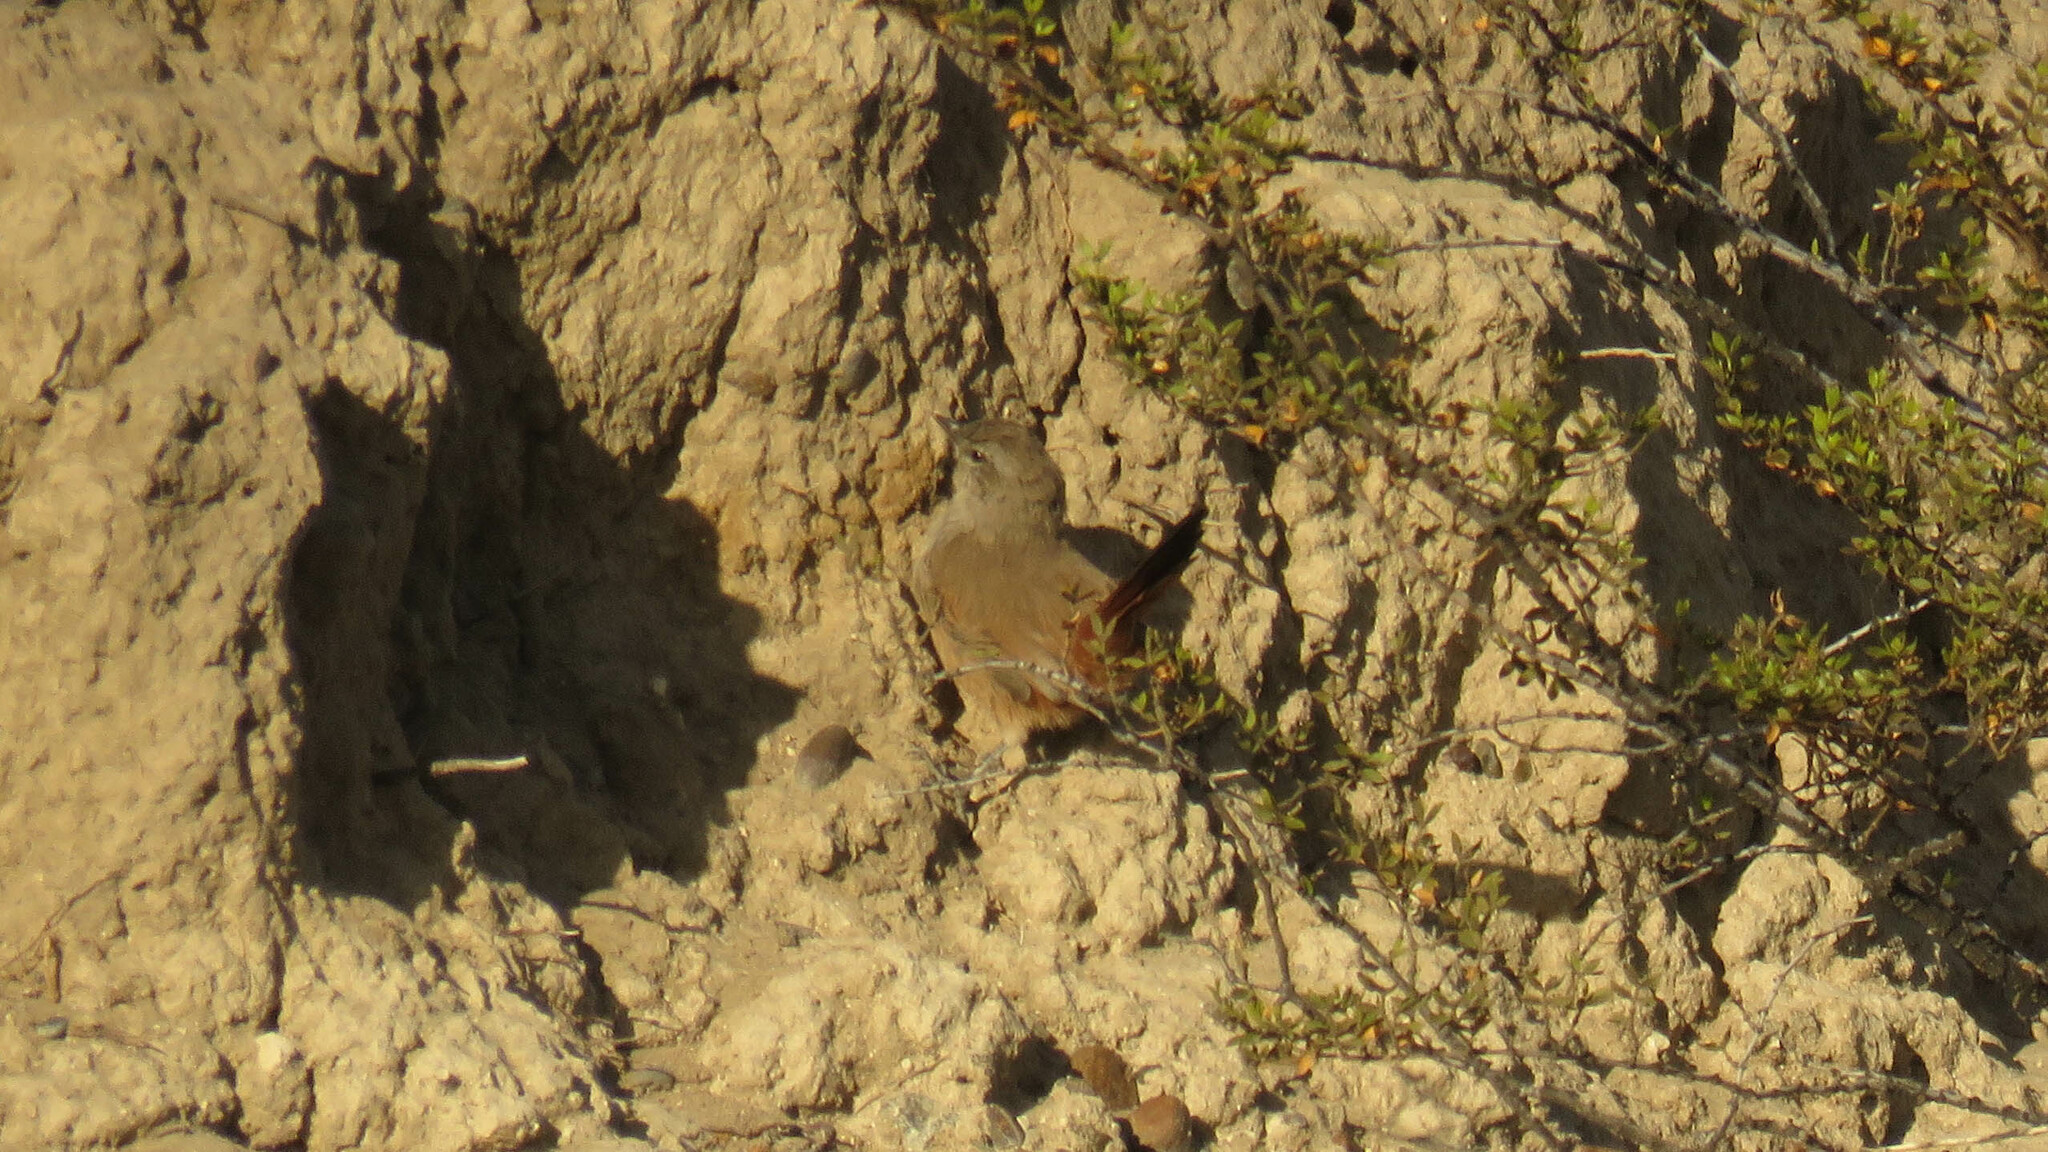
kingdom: Animalia
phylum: Chordata
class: Aves
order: Passeriformes
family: Furnariidae
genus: Asthenes
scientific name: Asthenes steinbachi
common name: Steinbach's canastero
